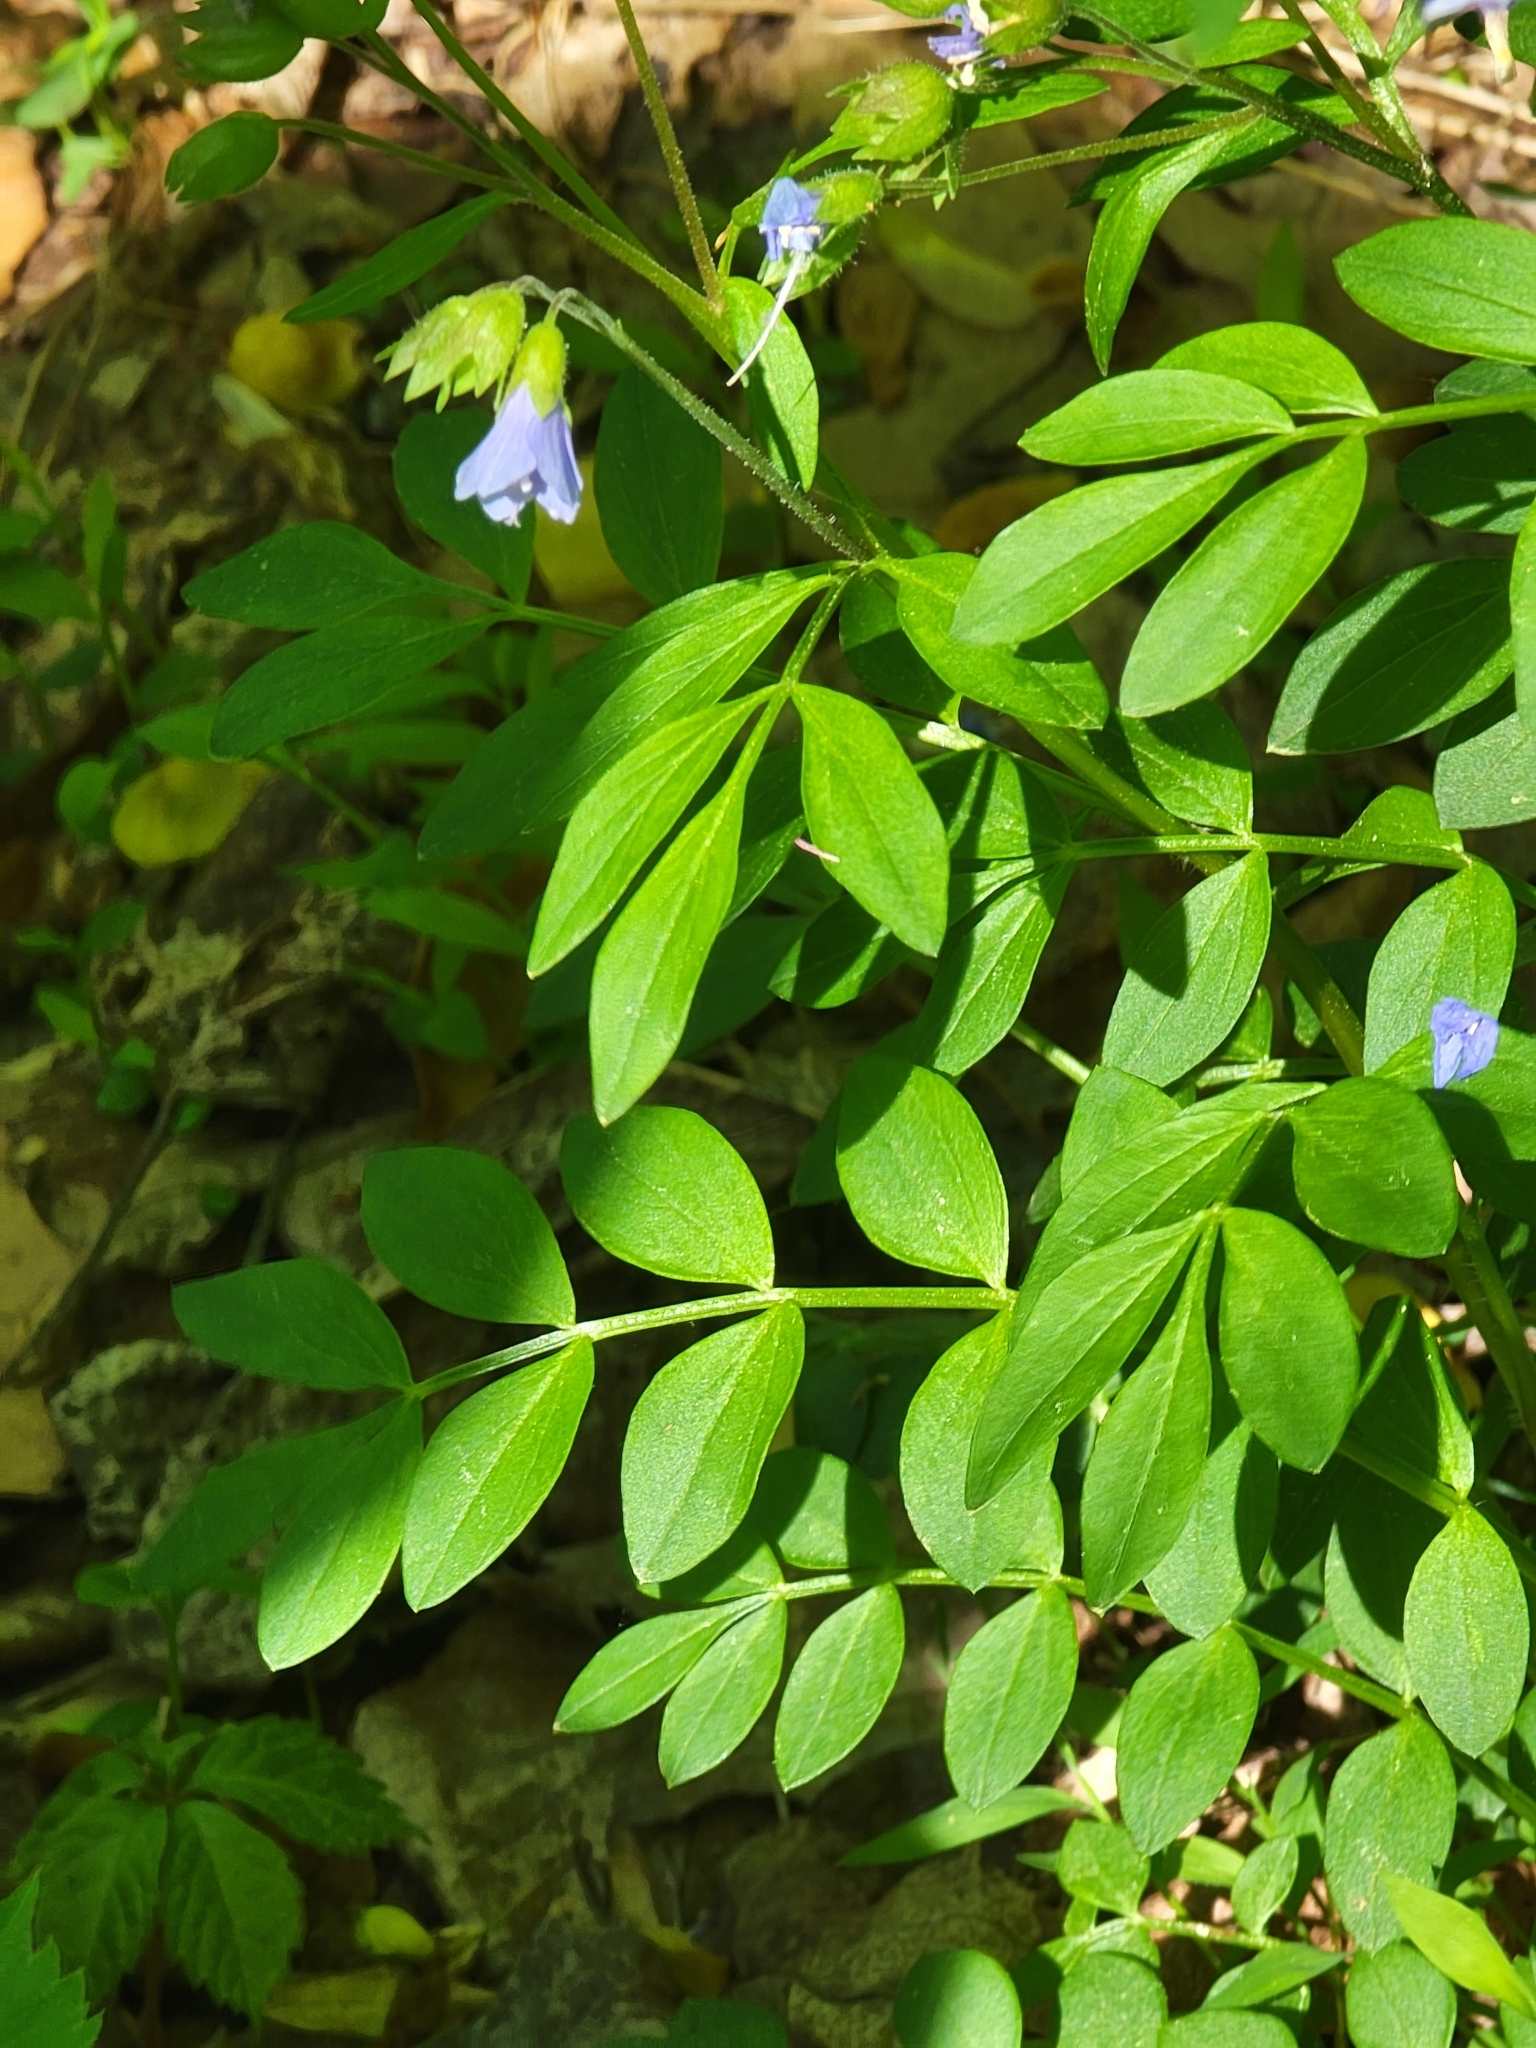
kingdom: Plantae
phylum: Tracheophyta
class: Magnoliopsida
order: Ericales
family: Polemoniaceae
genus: Polemonium
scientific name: Polemonium reptans
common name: Creeping jacob's-ladder
